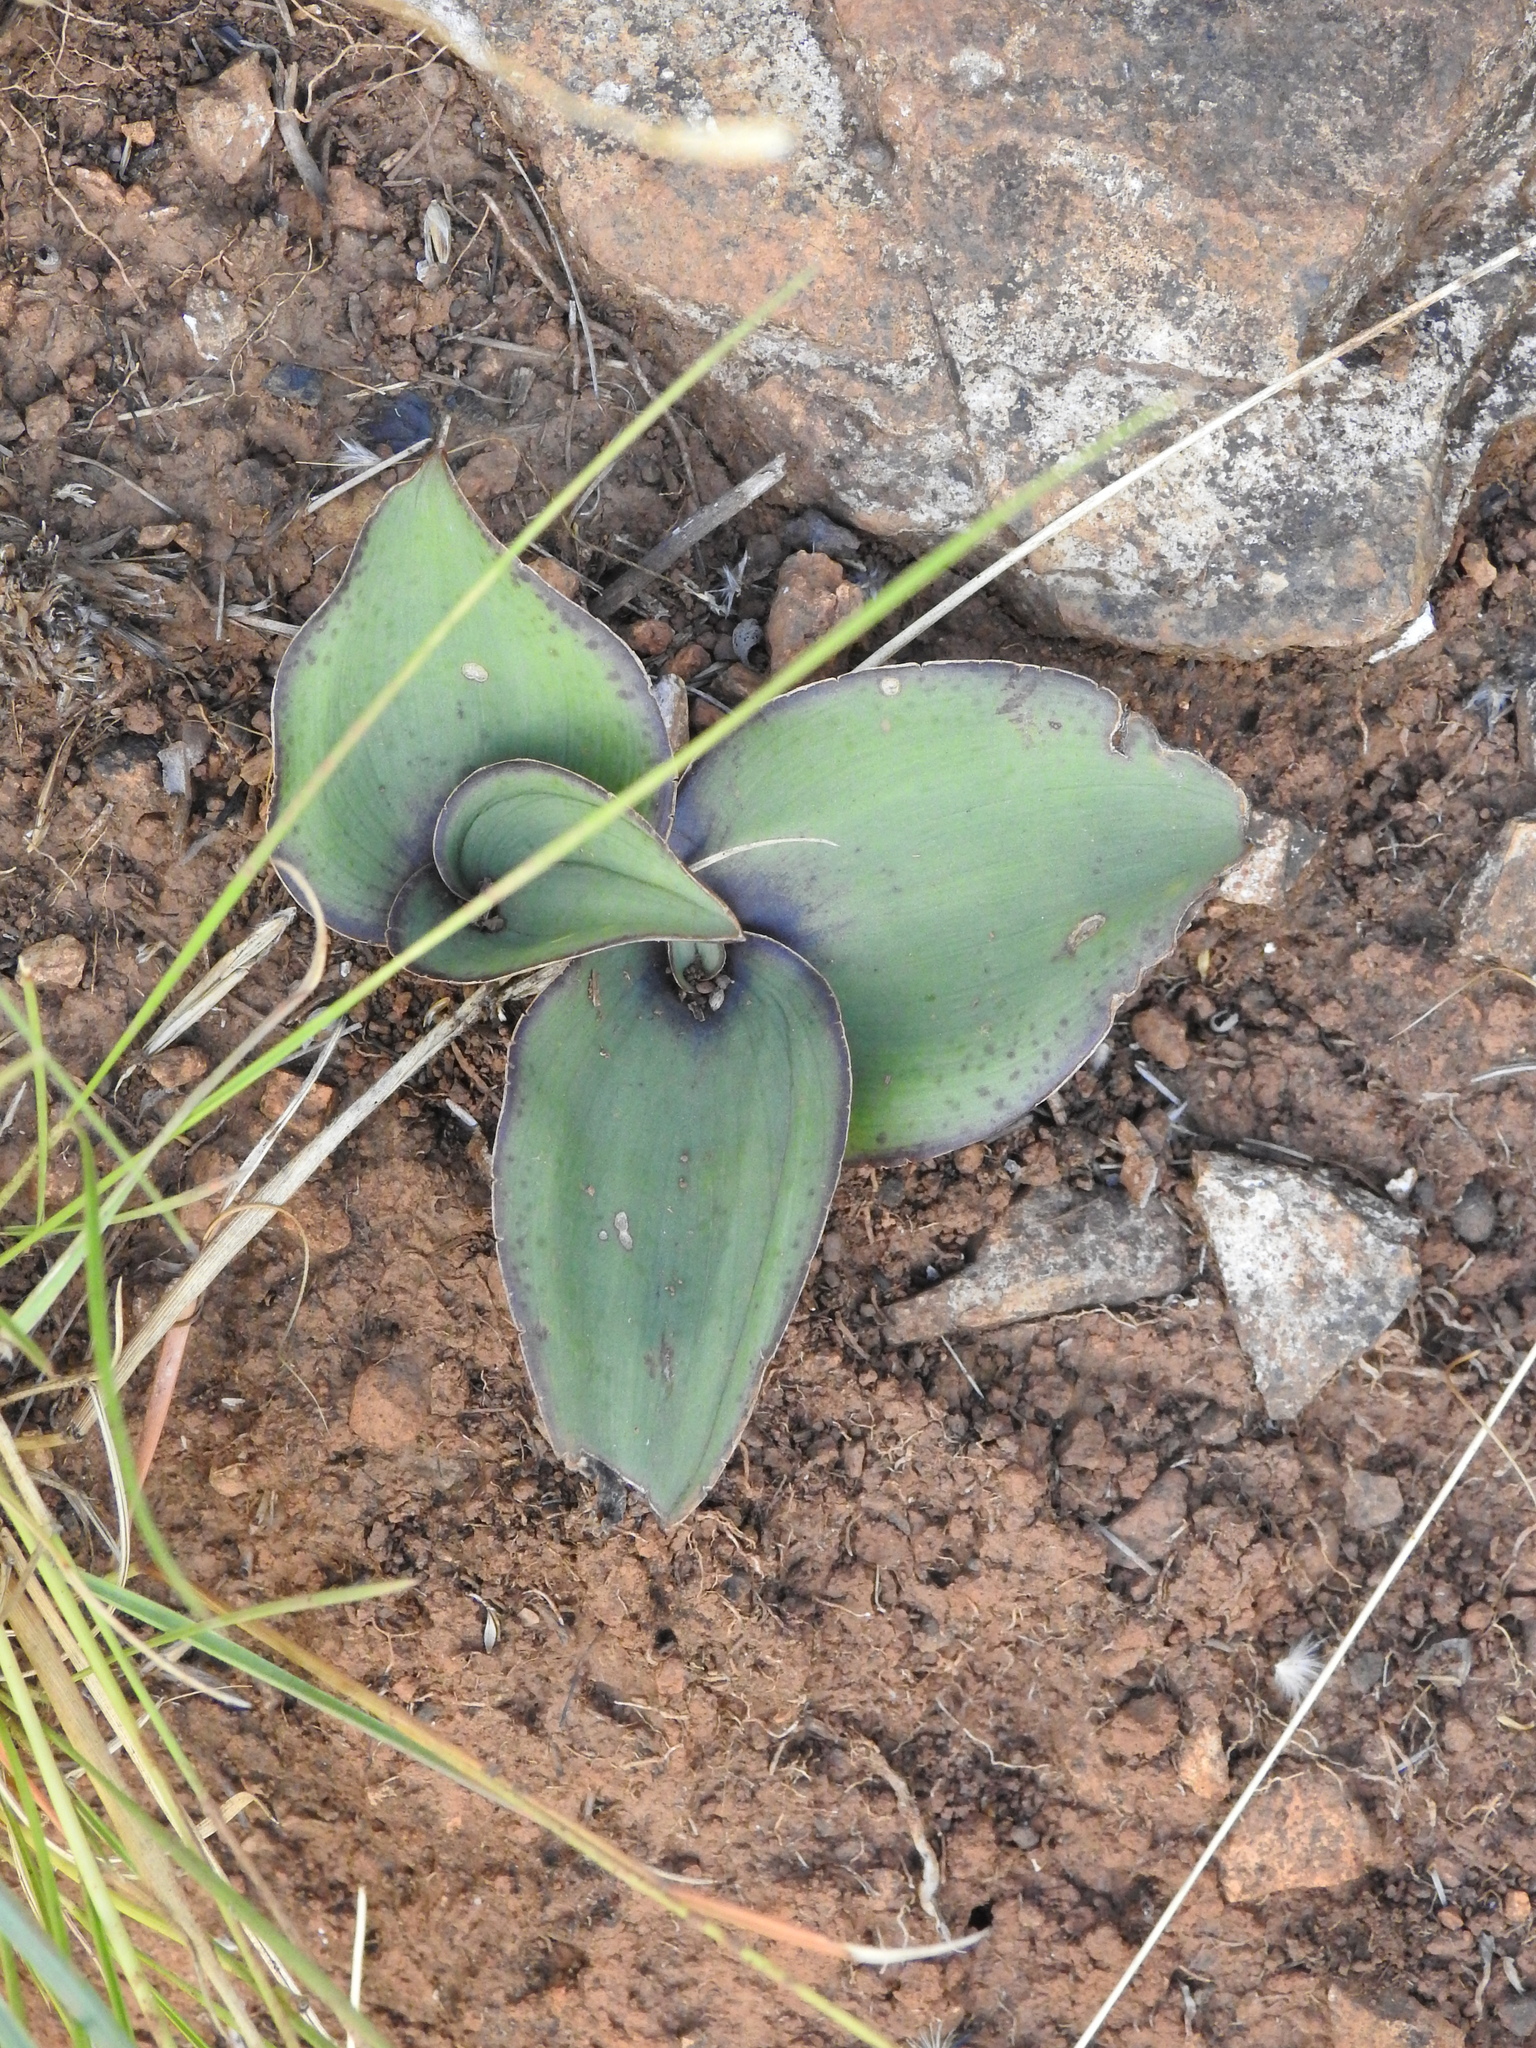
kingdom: Plantae
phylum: Tracheophyta
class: Liliopsida
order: Asparagales
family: Asparagaceae
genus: Ledebouria
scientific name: Ledebouria ovatifolia
